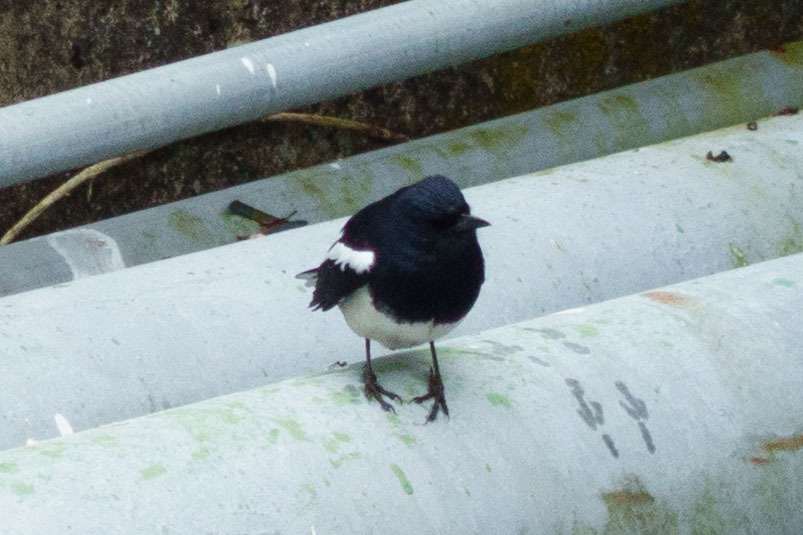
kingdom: Animalia
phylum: Chordata
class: Aves
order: Passeriformes
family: Muscicapidae
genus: Copsychus
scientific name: Copsychus saularis
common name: Oriental magpie-robin
